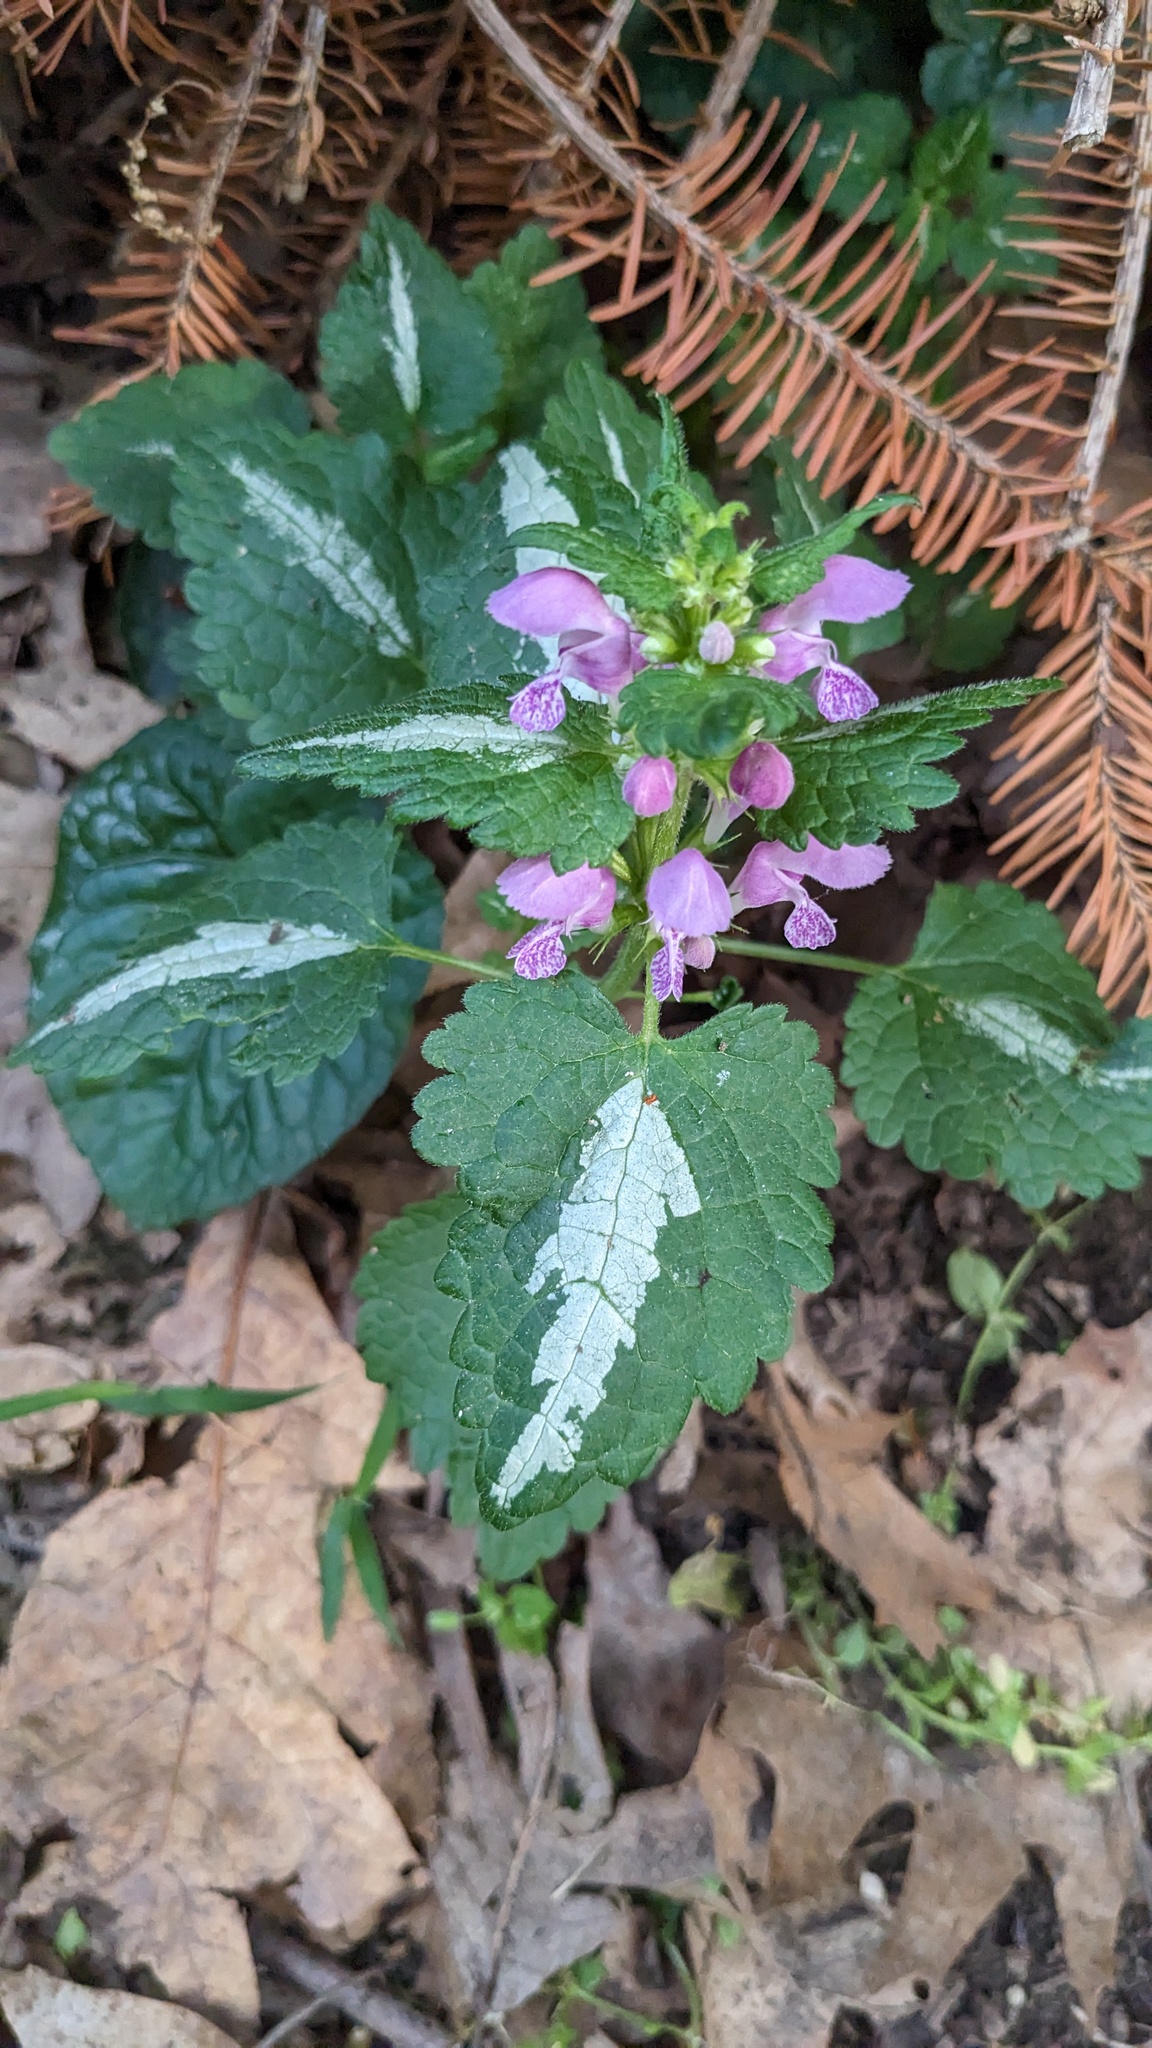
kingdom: Plantae
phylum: Tracheophyta
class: Magnoliopsida
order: Lamiales
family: Lamiaceae
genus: Lamium
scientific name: Lamium maculatum
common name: Spotted dead-nettle
